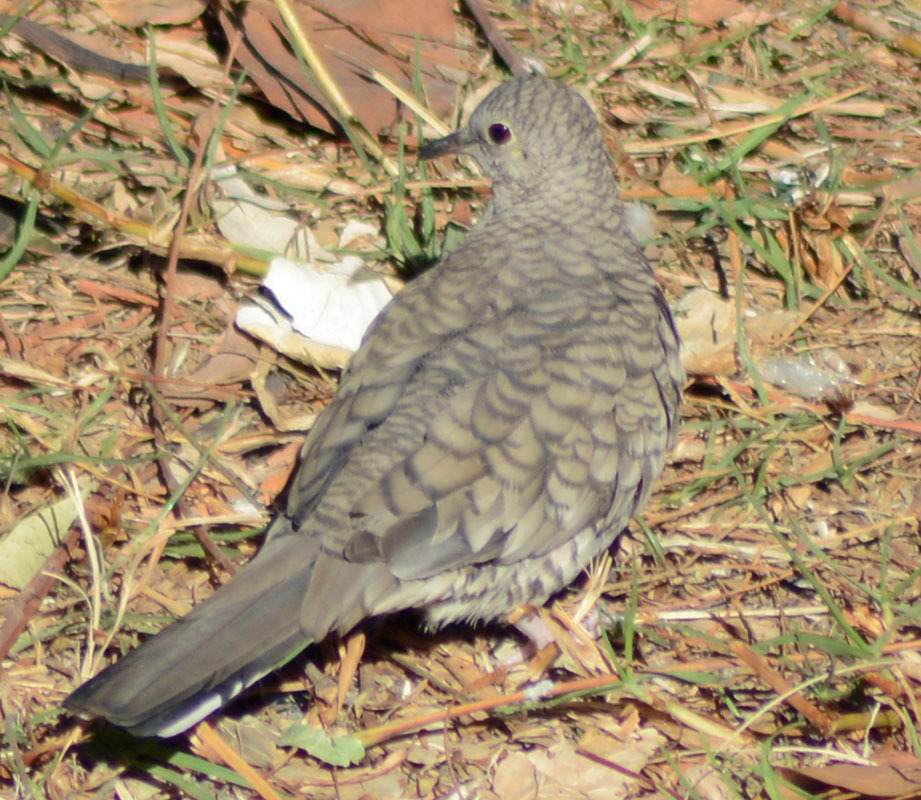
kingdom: Animalia
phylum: Chordata
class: Aves
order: Columbiformes
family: Columbidae
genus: Columbina
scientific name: Columbina inca
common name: Inca dove
